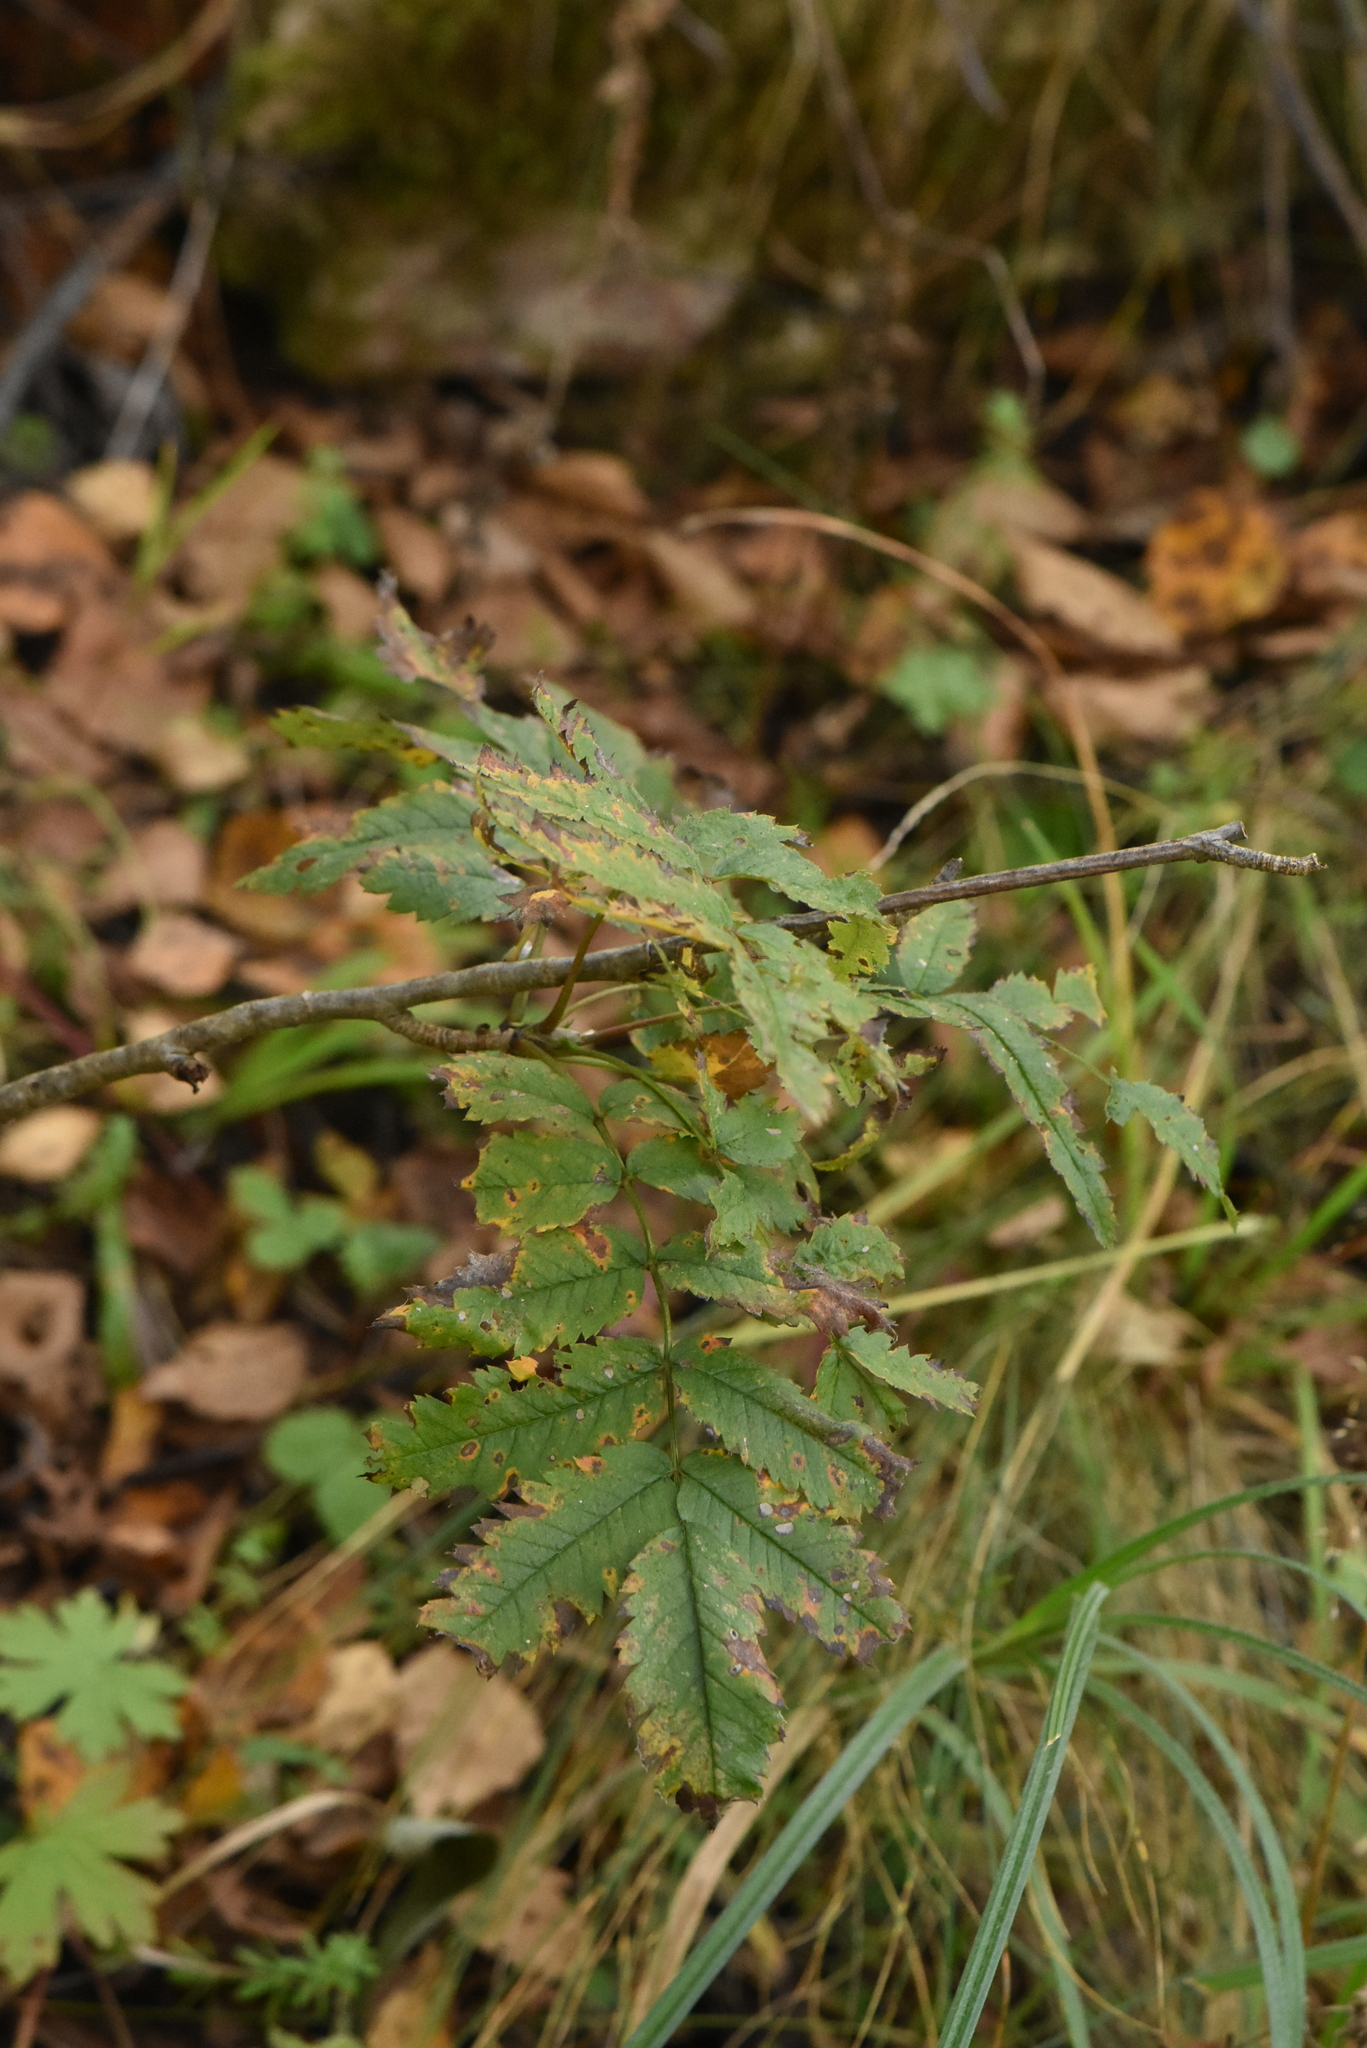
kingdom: Plantae
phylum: Tracheophyta
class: Magnoliopsida
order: Rosales
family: Rosaceae
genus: Sorbus
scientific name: Sorbus aucuparia
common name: Rowan
